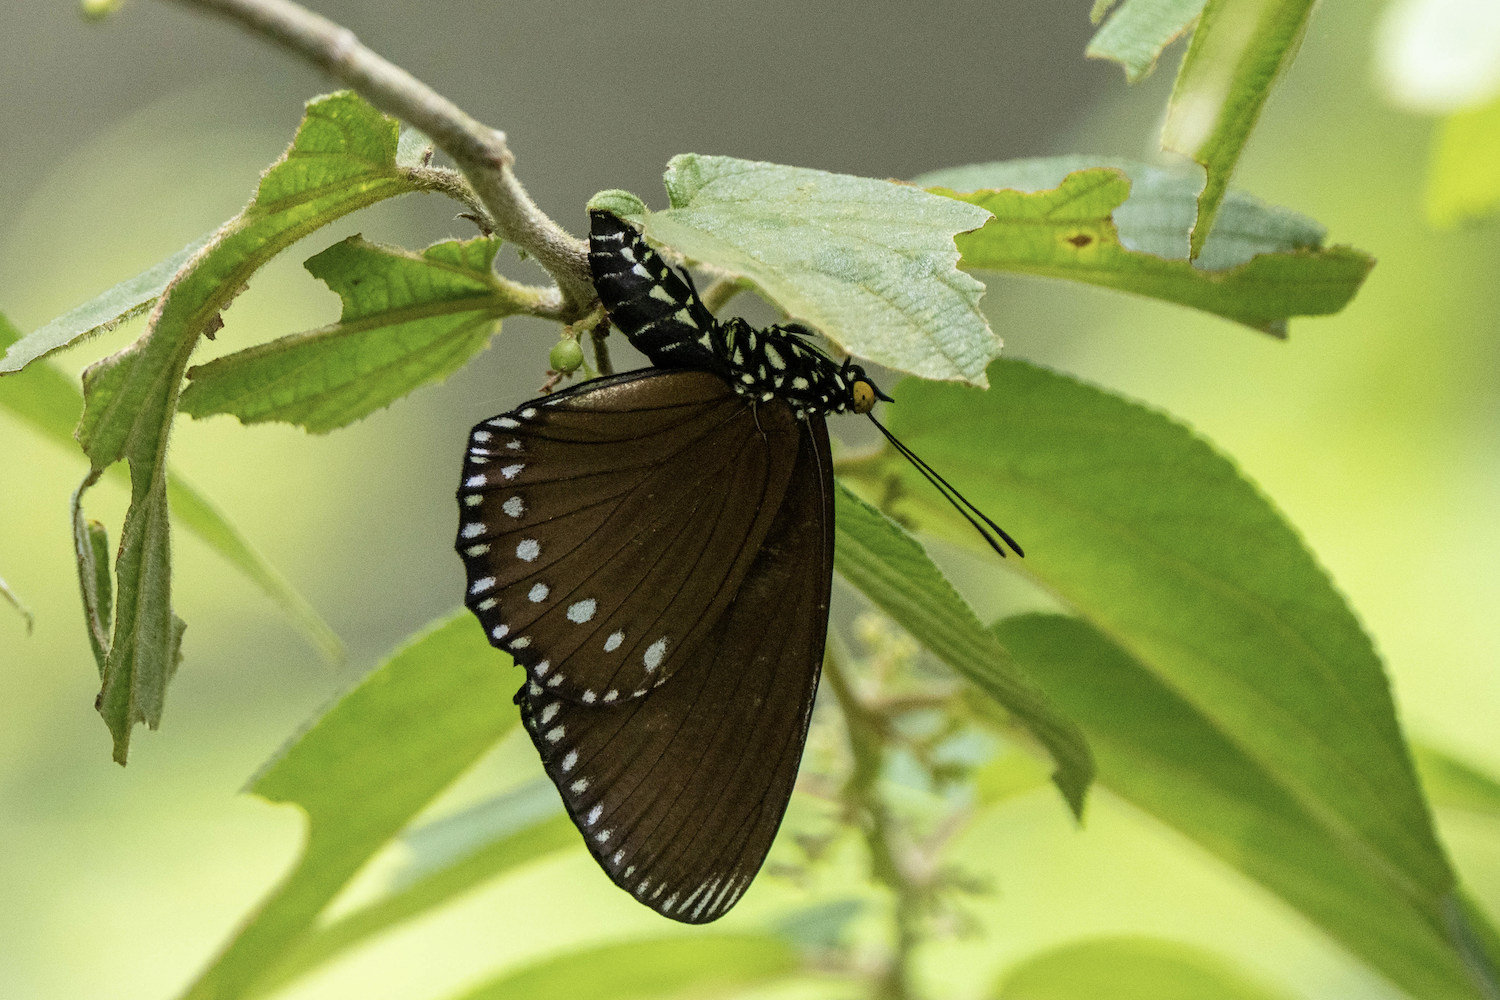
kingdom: Animalia
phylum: Arthropoda
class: Insecta
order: Lepidoptera
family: Nymphalidae
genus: Euripus
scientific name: Euripus nyctelius
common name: Courtesan
